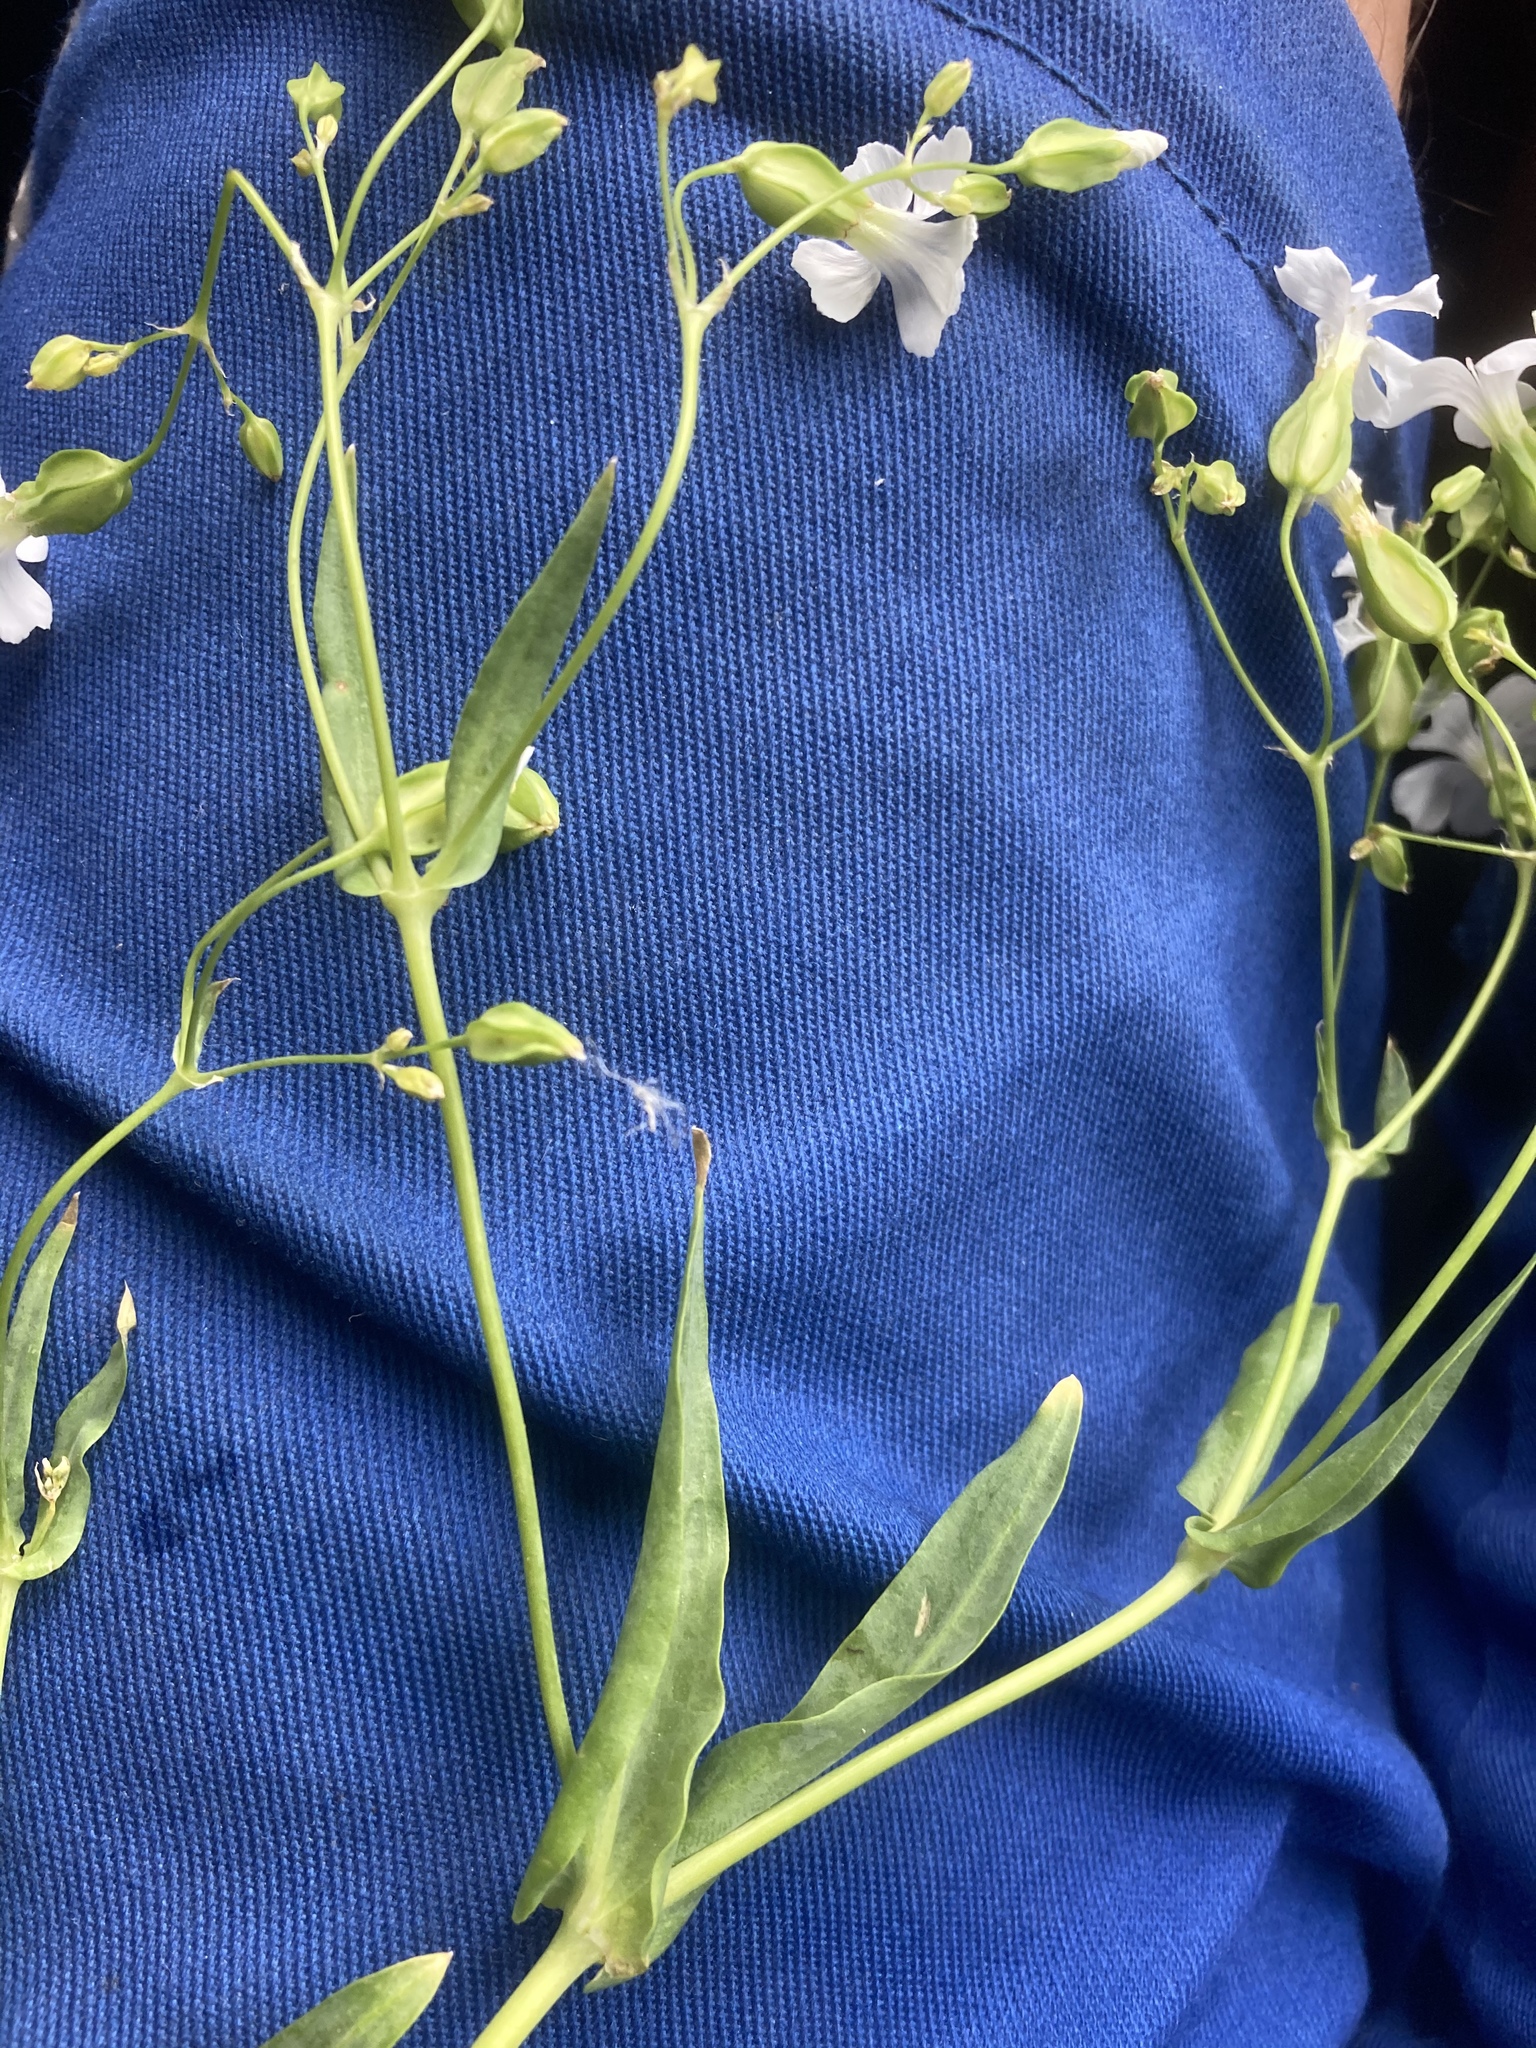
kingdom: Plantae
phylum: Tracheophyta
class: Magnoliopsida
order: Caryophyllales
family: Caryophyllaceae
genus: Gypsophila
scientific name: Gypsophila vaccaria
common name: Cow soapwort
